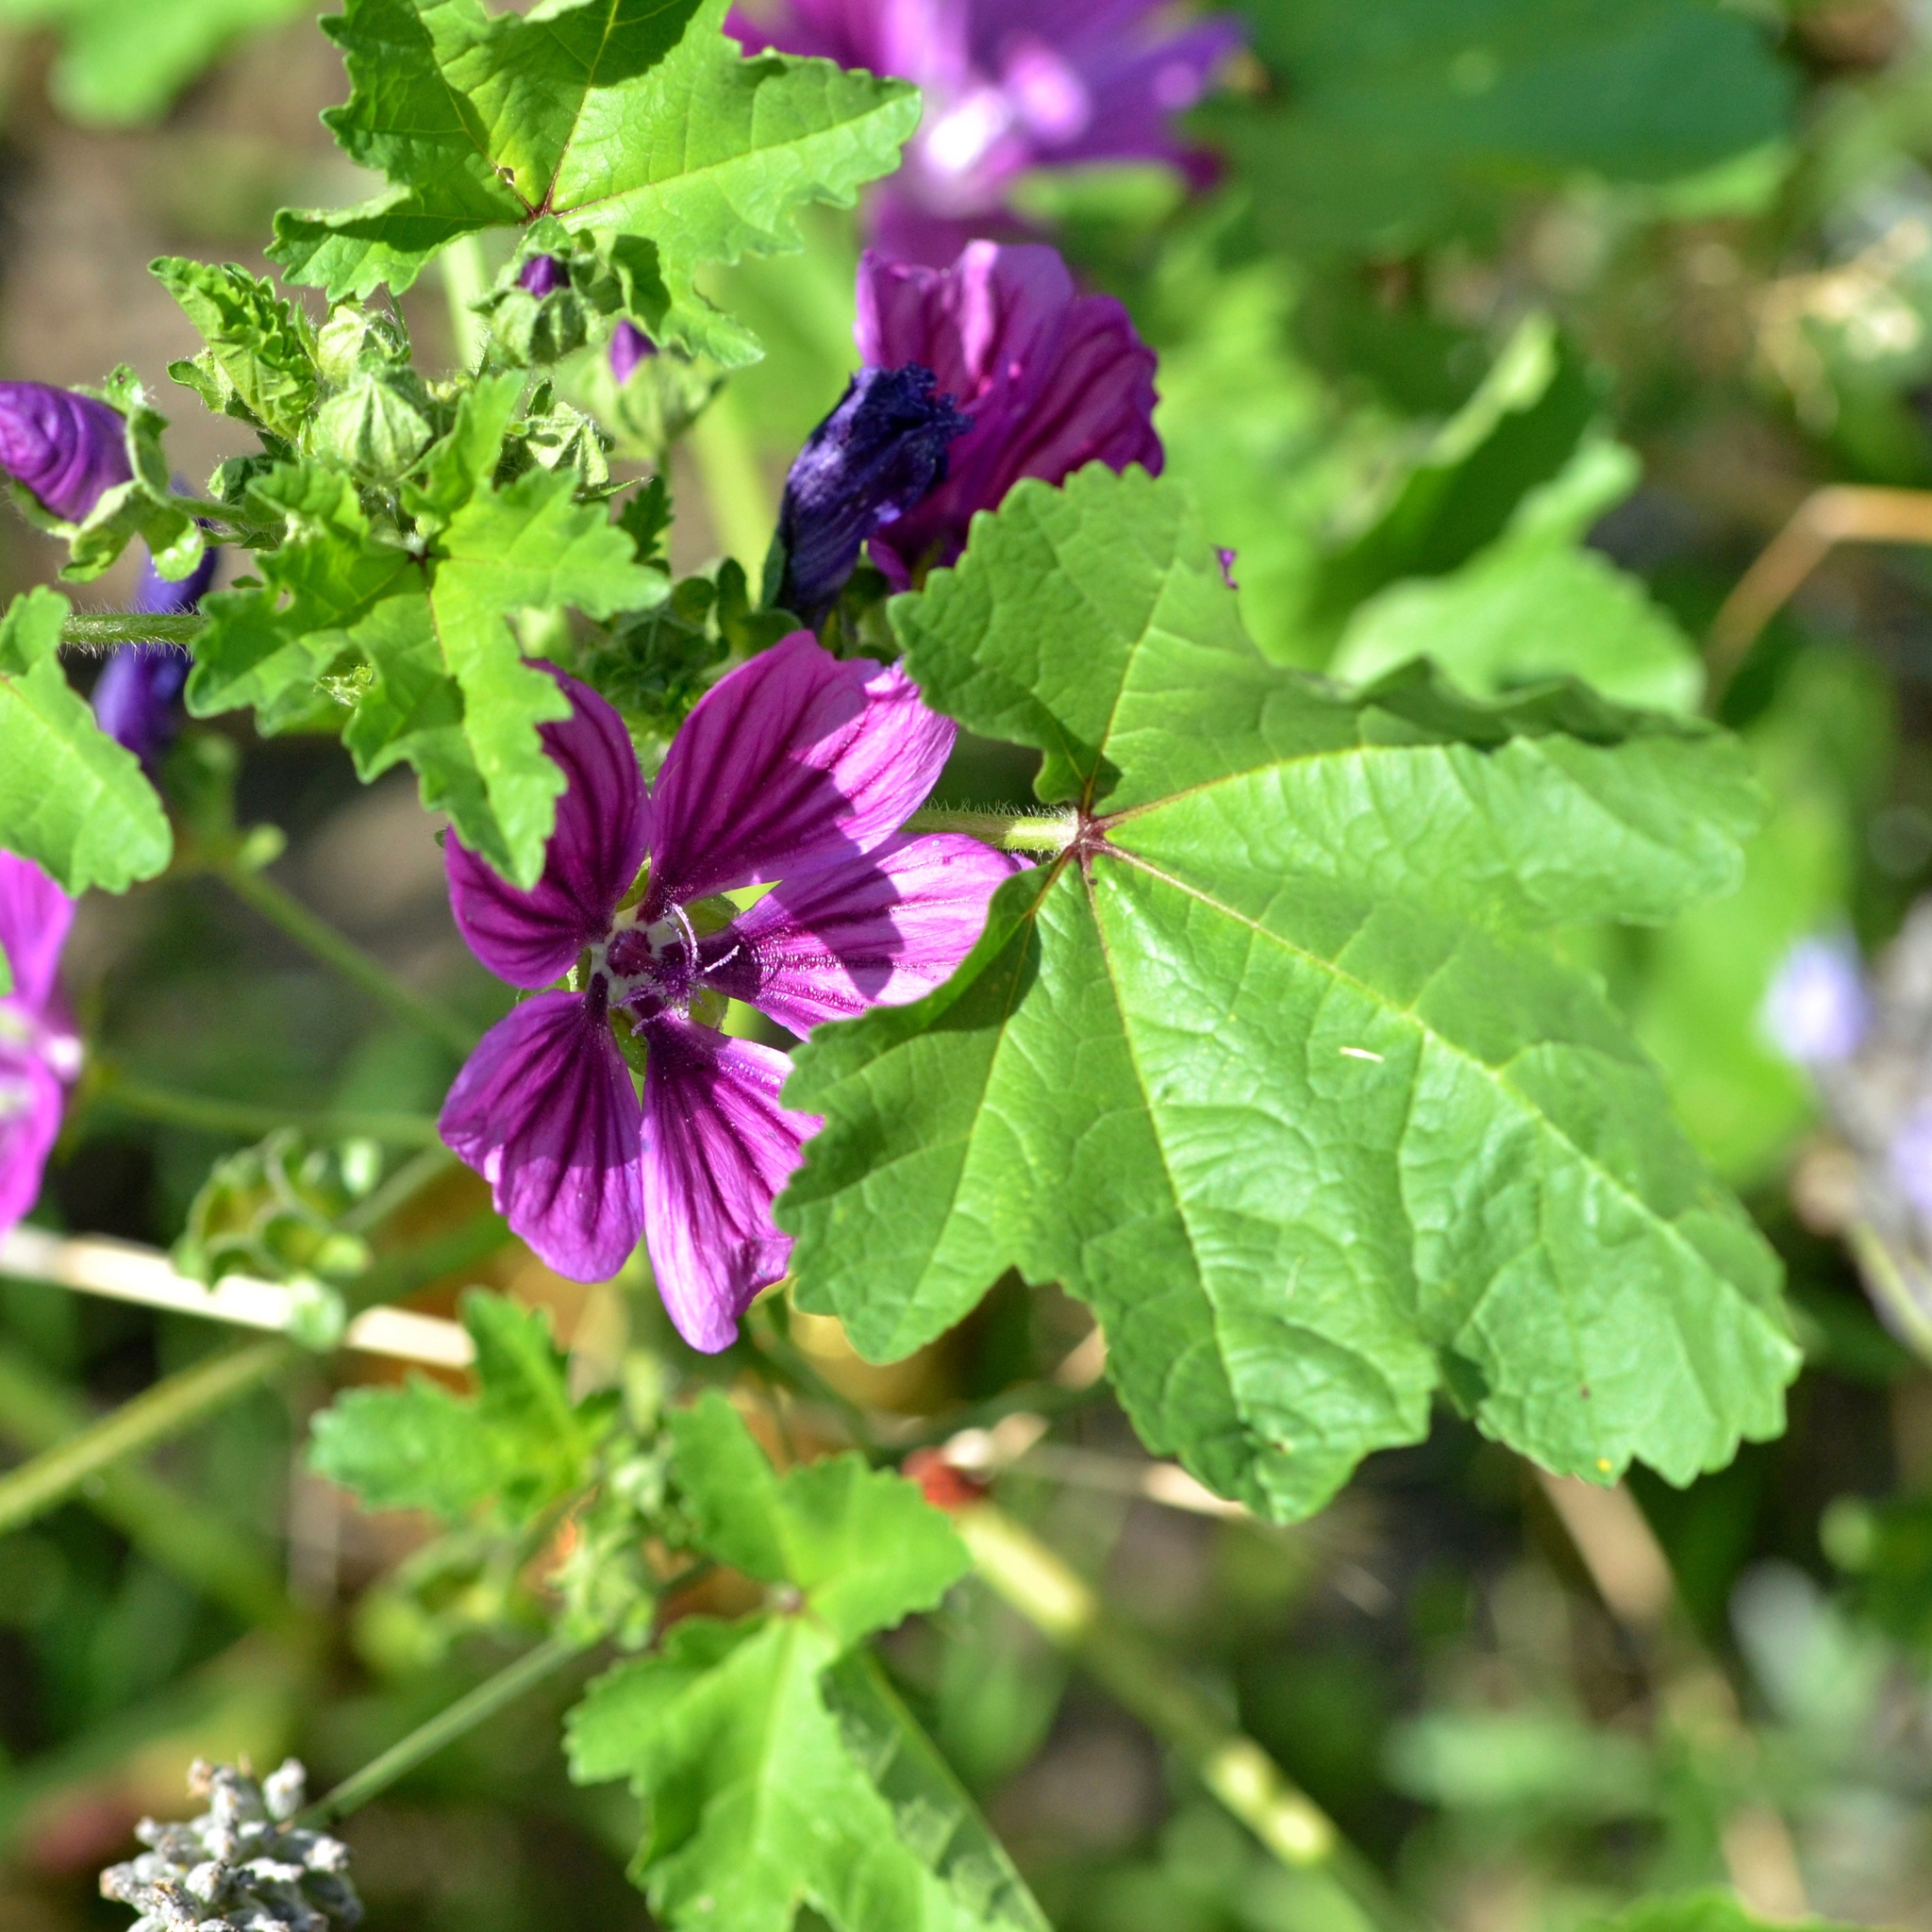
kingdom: Plantae
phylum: Tracheophyta
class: Magnoliopsida
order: Malvales
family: Malvaceae
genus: Malva
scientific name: Malva sylvestris
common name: Common mallow
